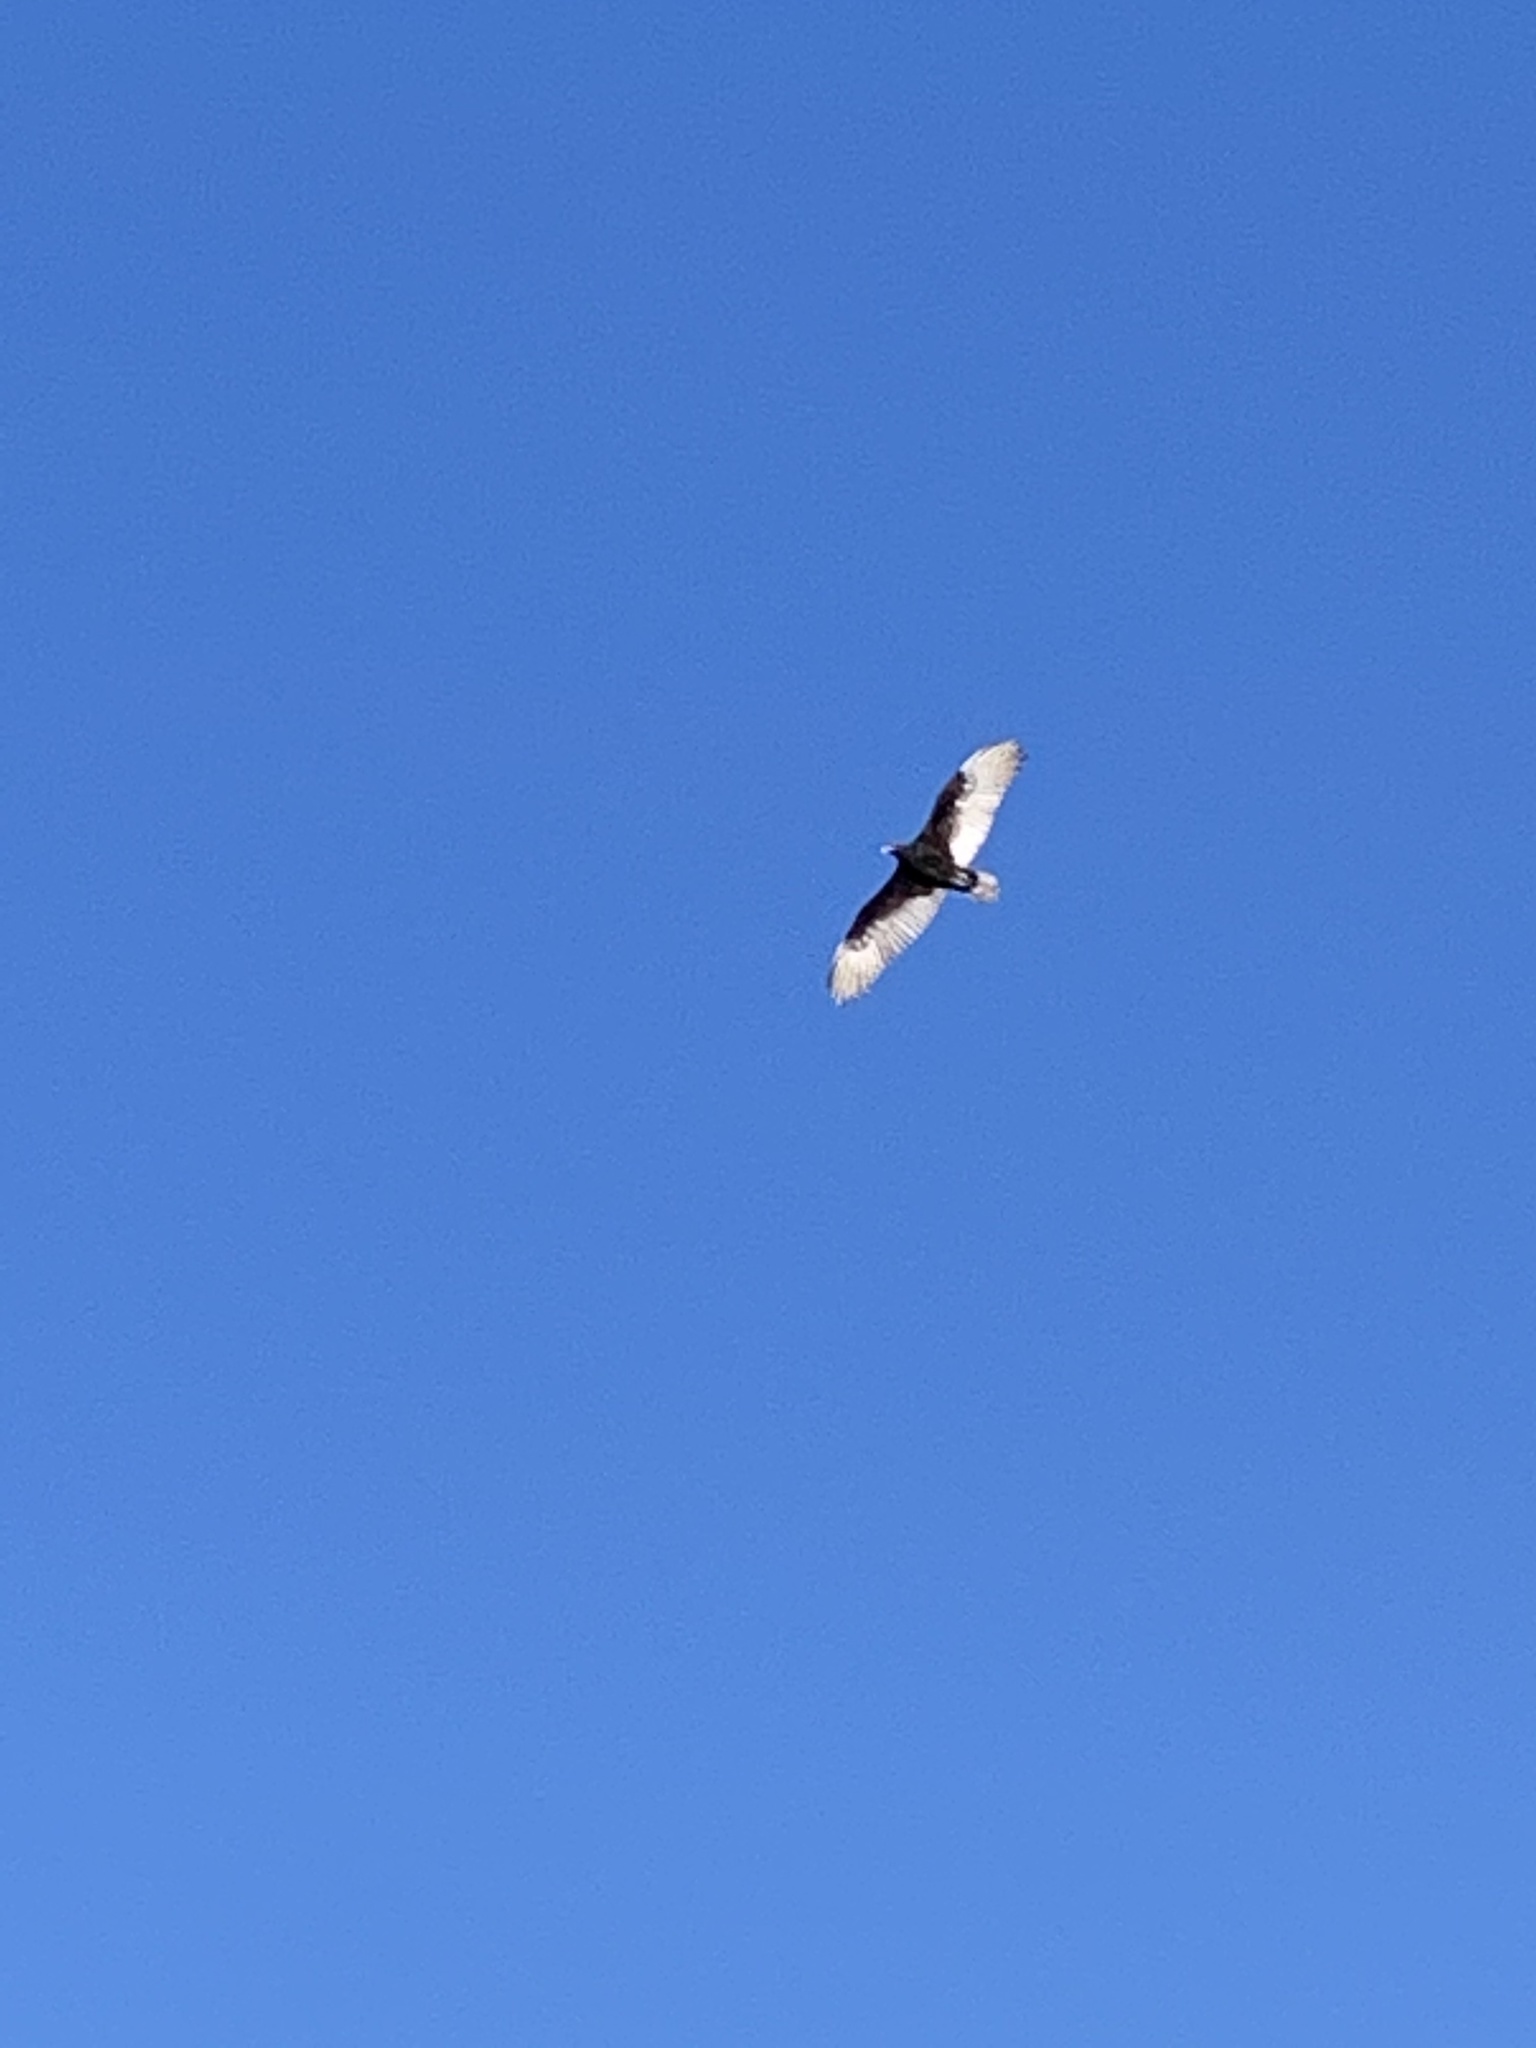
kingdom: Animalia
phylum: Chordata
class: Aves
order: Accipitriformes
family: Cathartidae
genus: Cathartes
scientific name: Cathartes aura
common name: Turkey vulture
